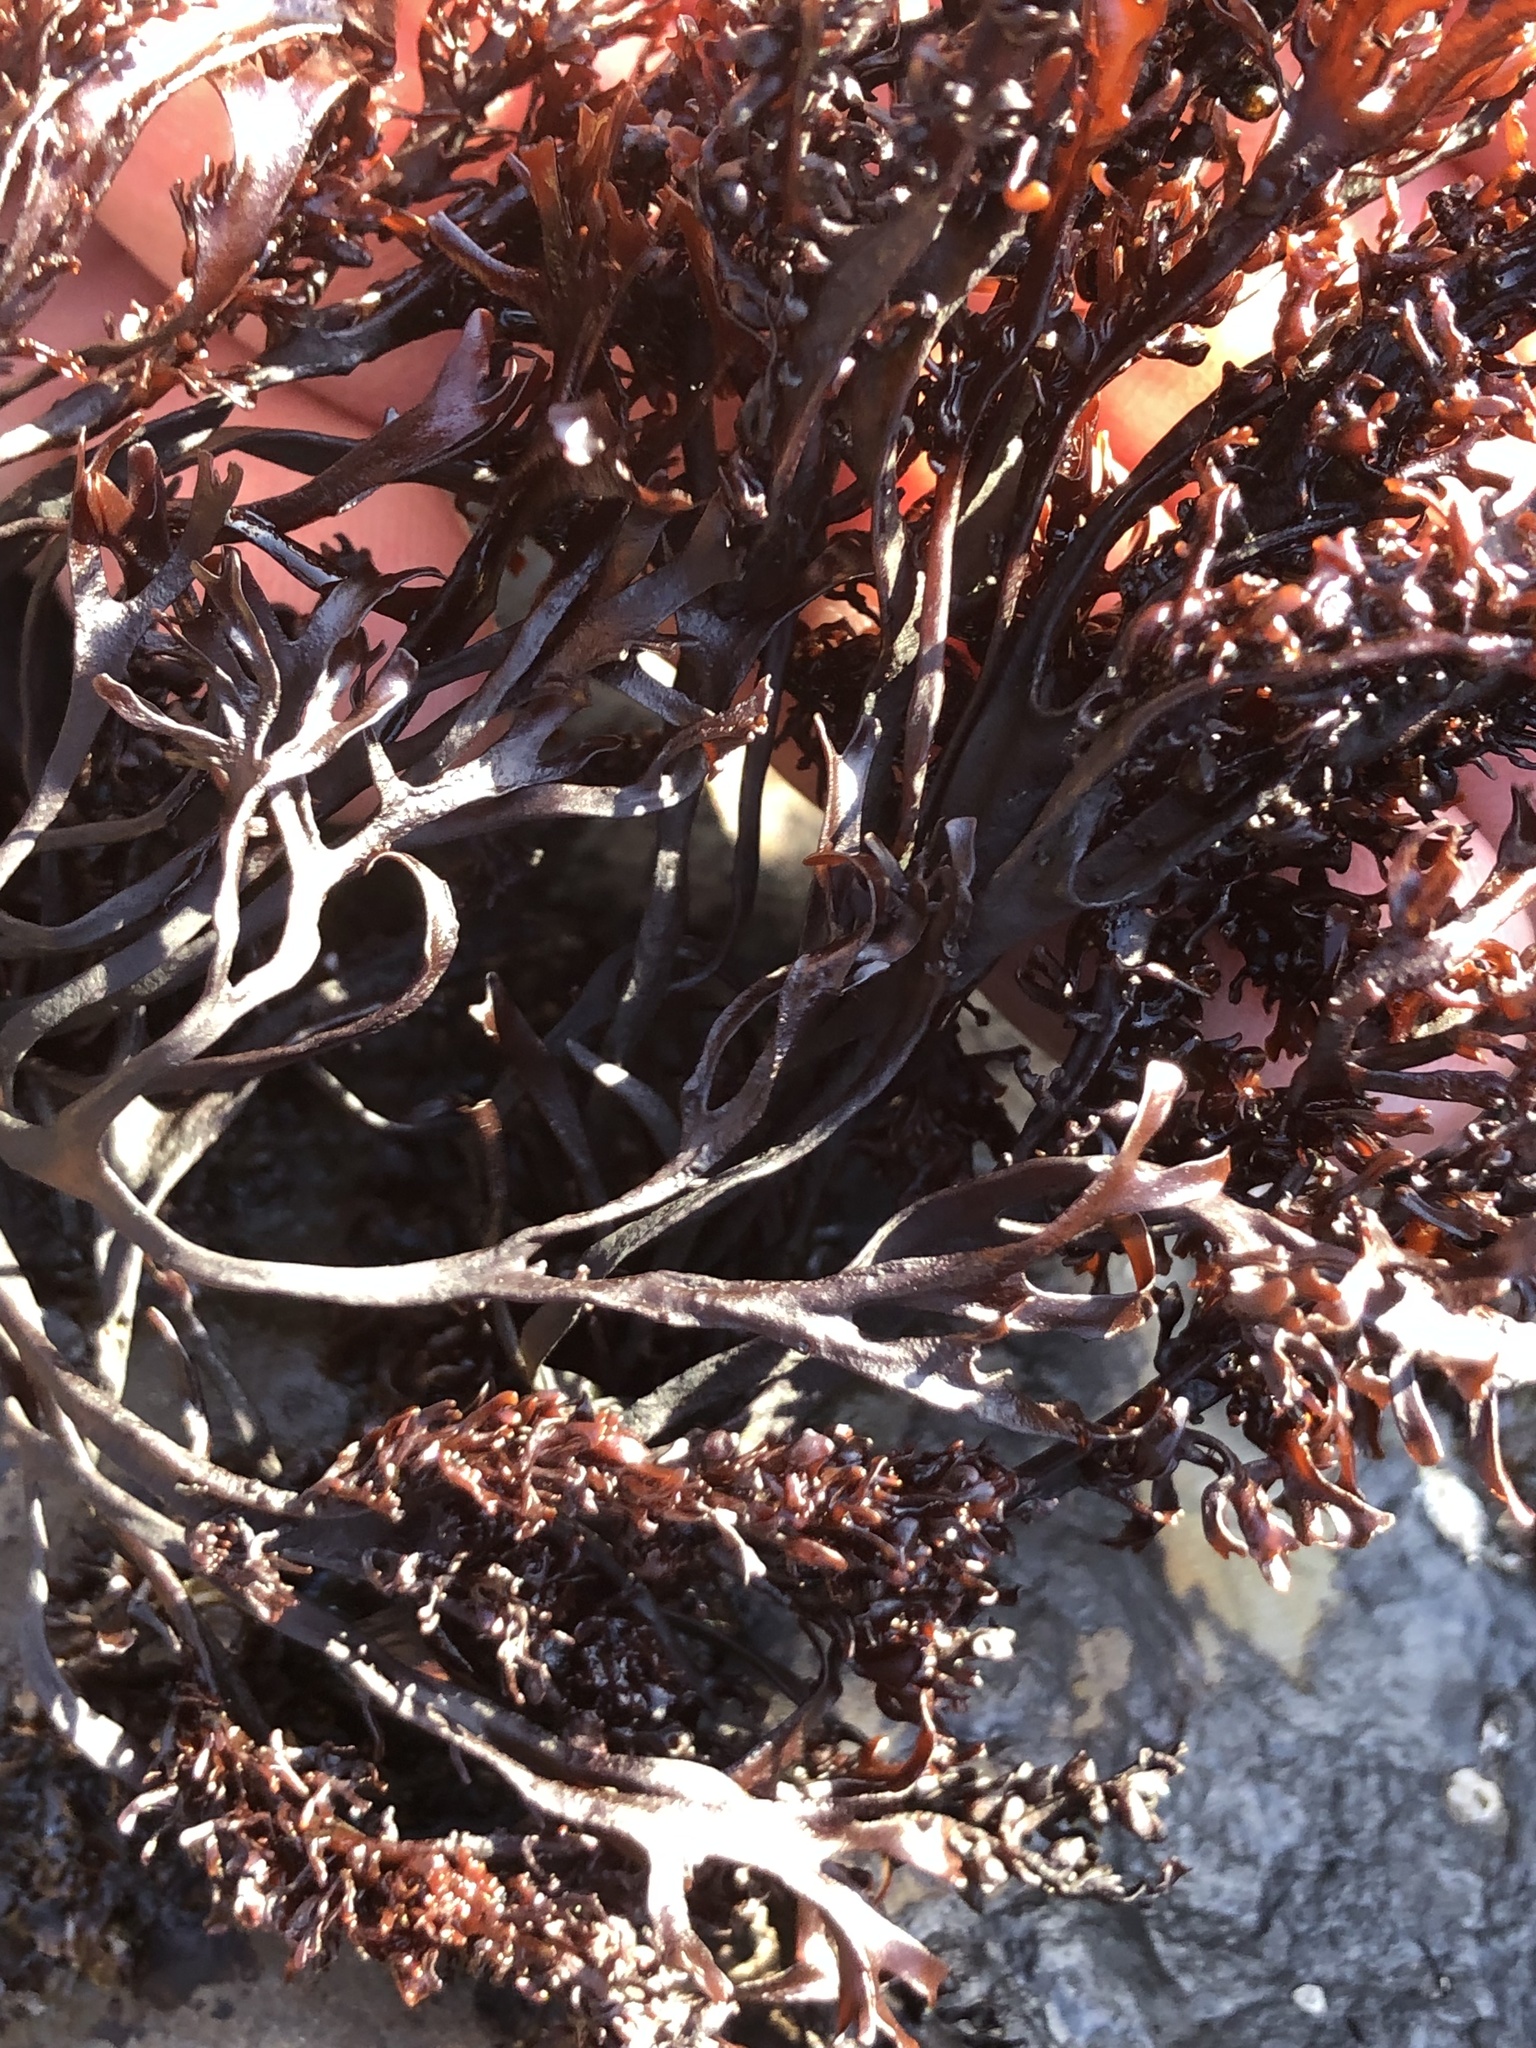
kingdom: Plantae
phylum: Rhodophyta
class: Florideophyceae
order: Gigartinales
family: Phyllophoraceae
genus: Mastocarpus
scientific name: Mastocarpus jardinii
